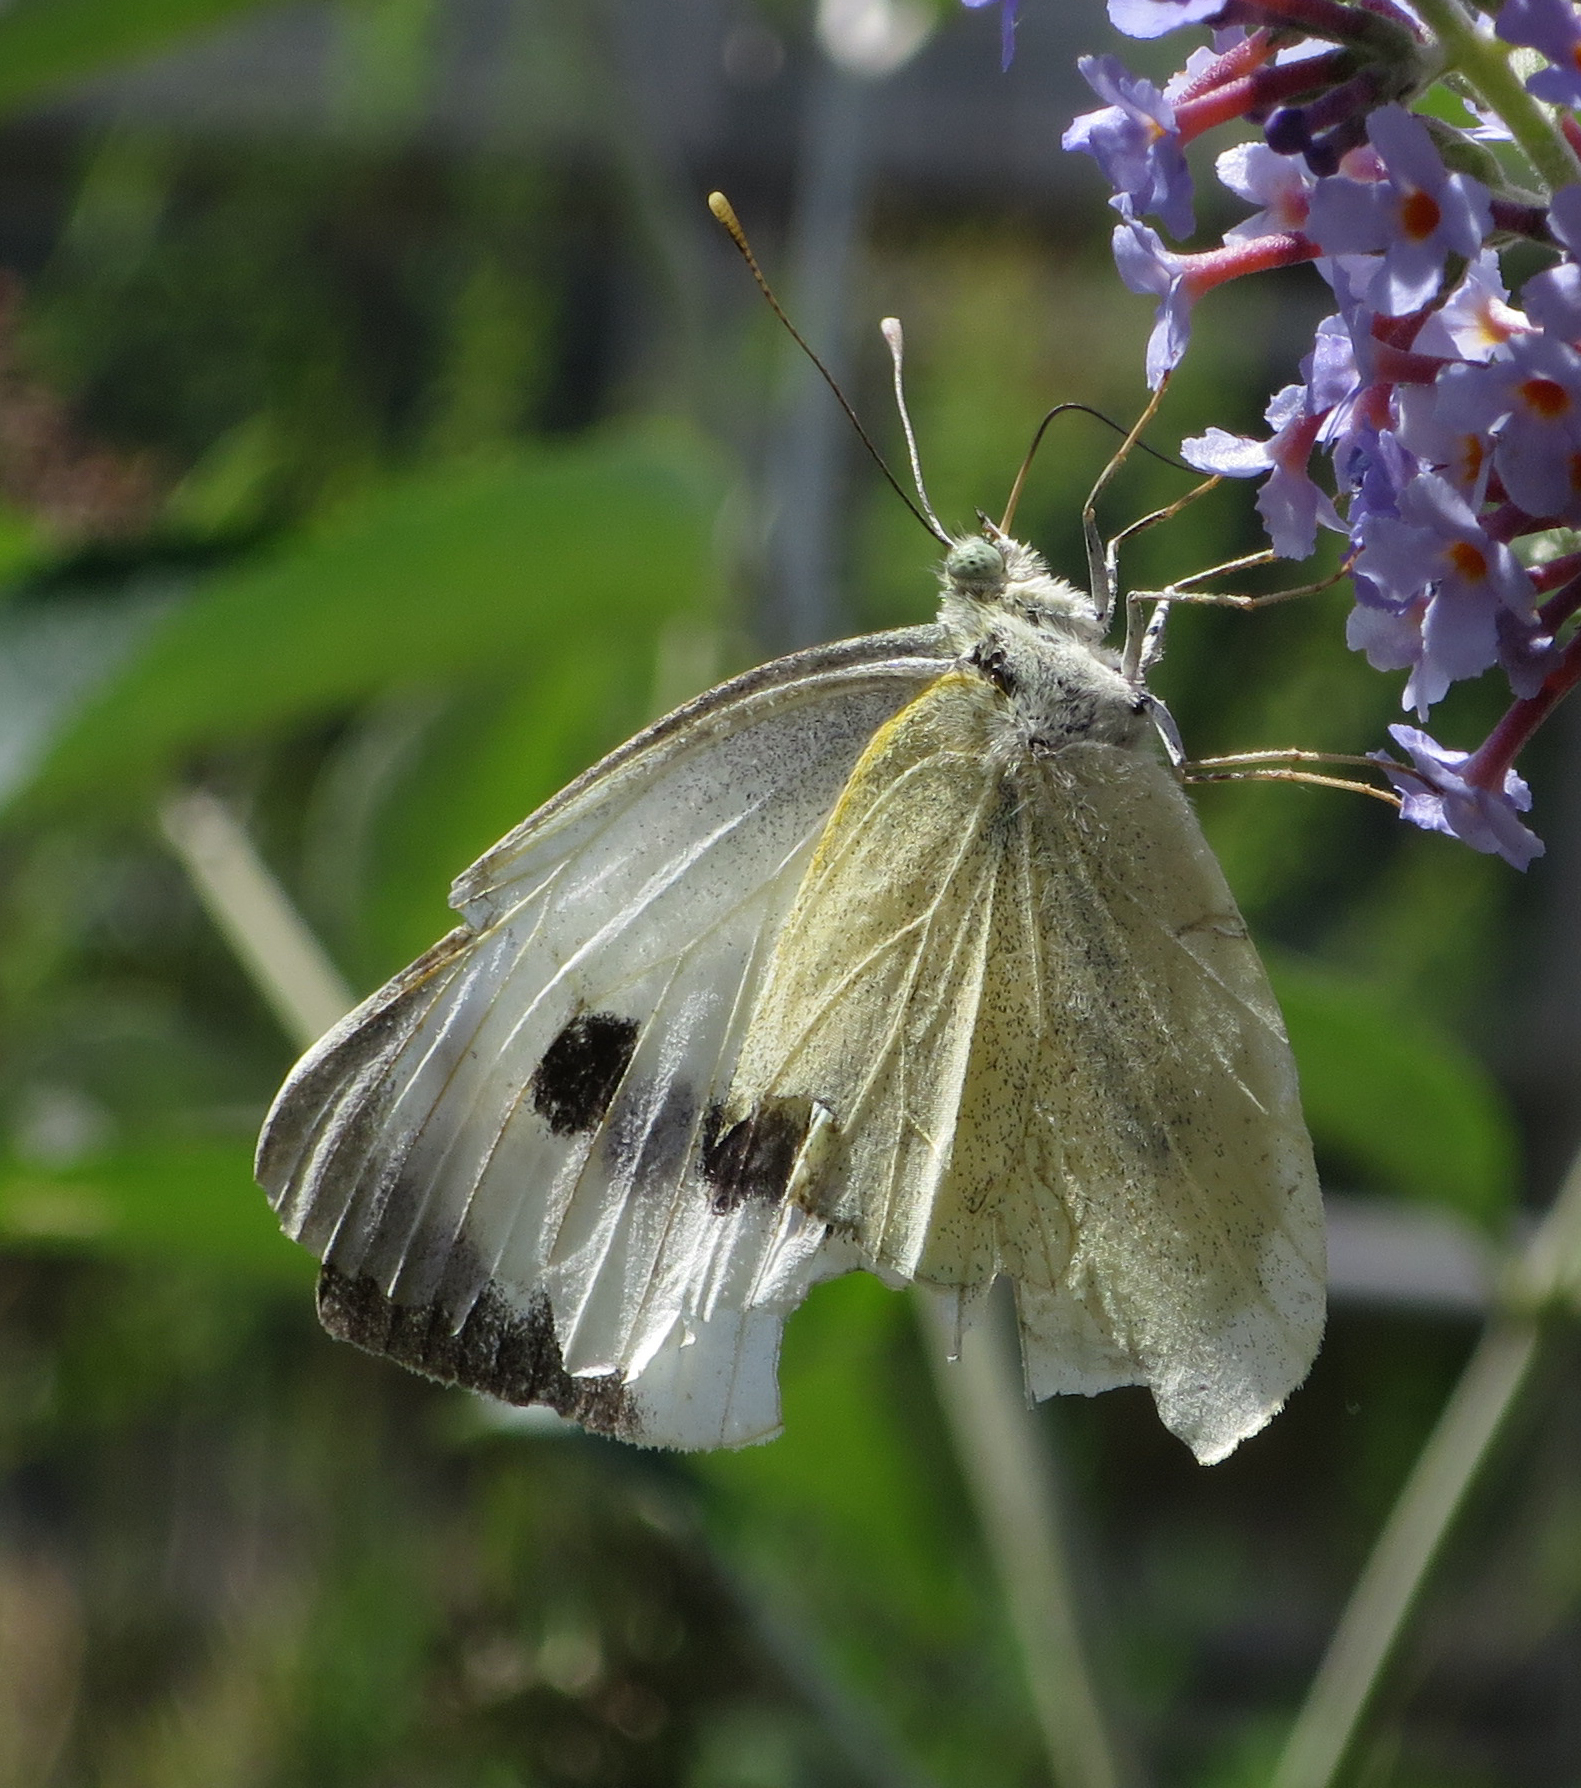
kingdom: Animalia
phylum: Arthropoda
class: Insecta
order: Lepidoptera
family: Pieridae
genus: Pieris
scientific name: Pieris brassicae
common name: Large white
